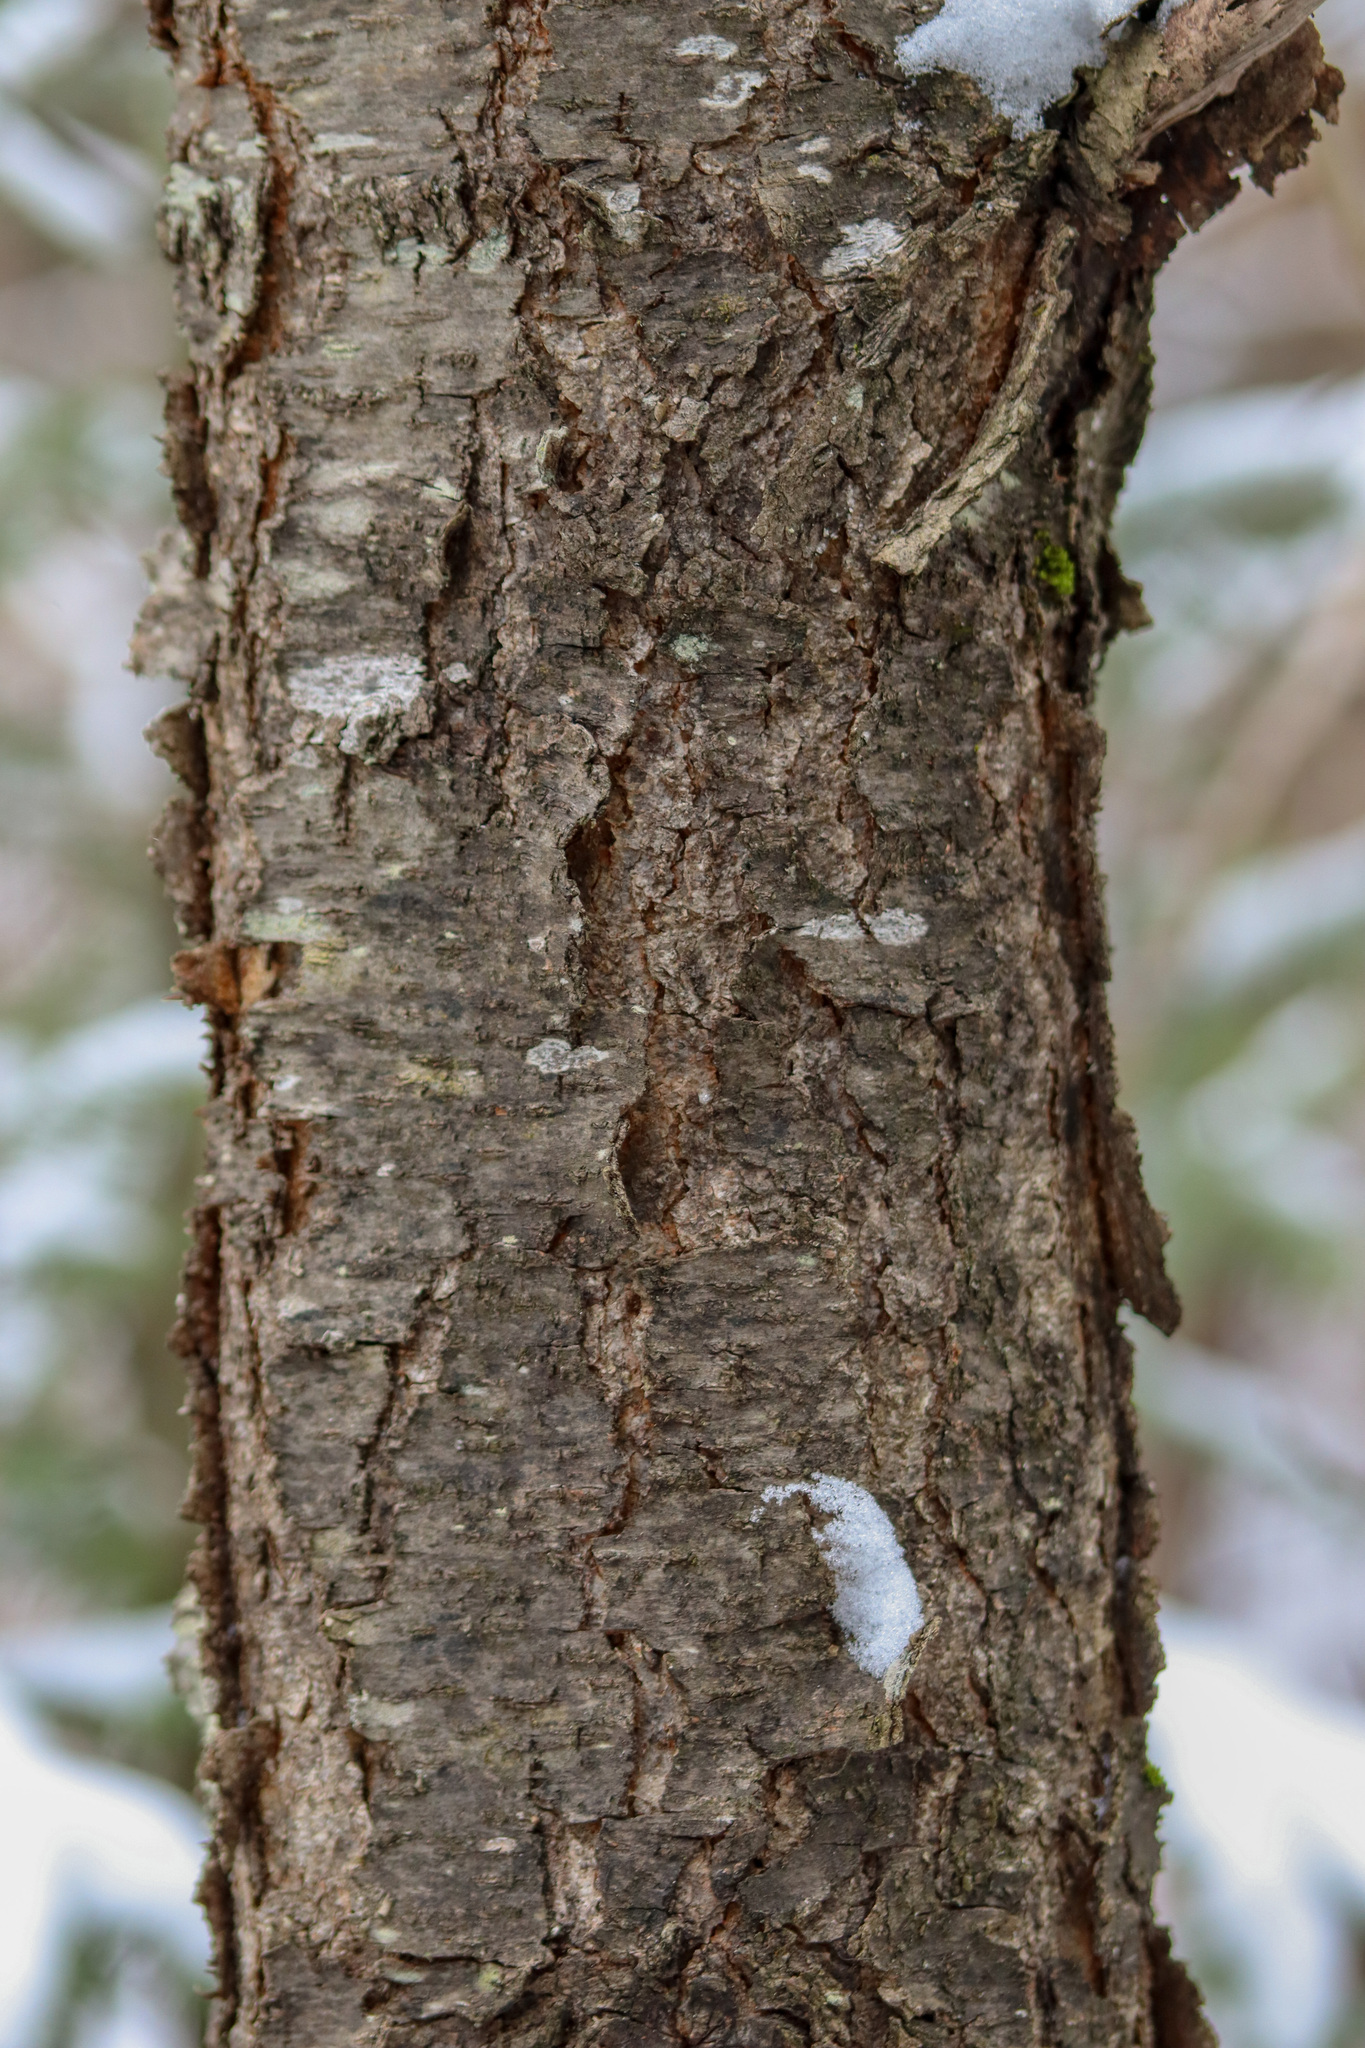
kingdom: Plantae
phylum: Tracheophyta
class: Magnoliopsida
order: Rosales
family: Rosaceae
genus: Prunus
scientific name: Prunus serotina
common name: Black cherry
